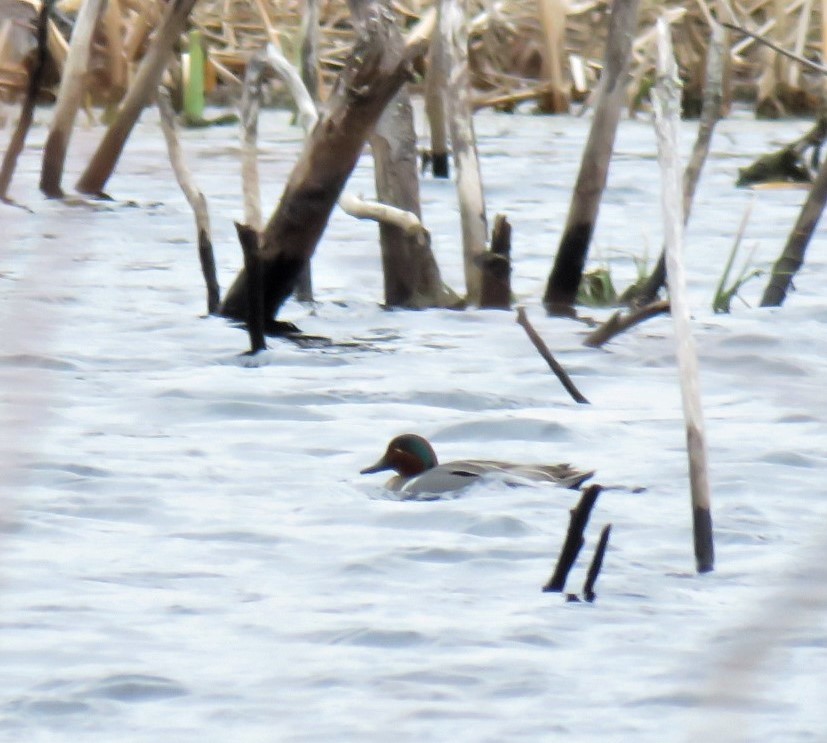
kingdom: Animalia
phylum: Chordata
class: Aves
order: Anseriformes
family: Anatidae
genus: Anas
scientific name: Anas crecca
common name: Eurasian teal
